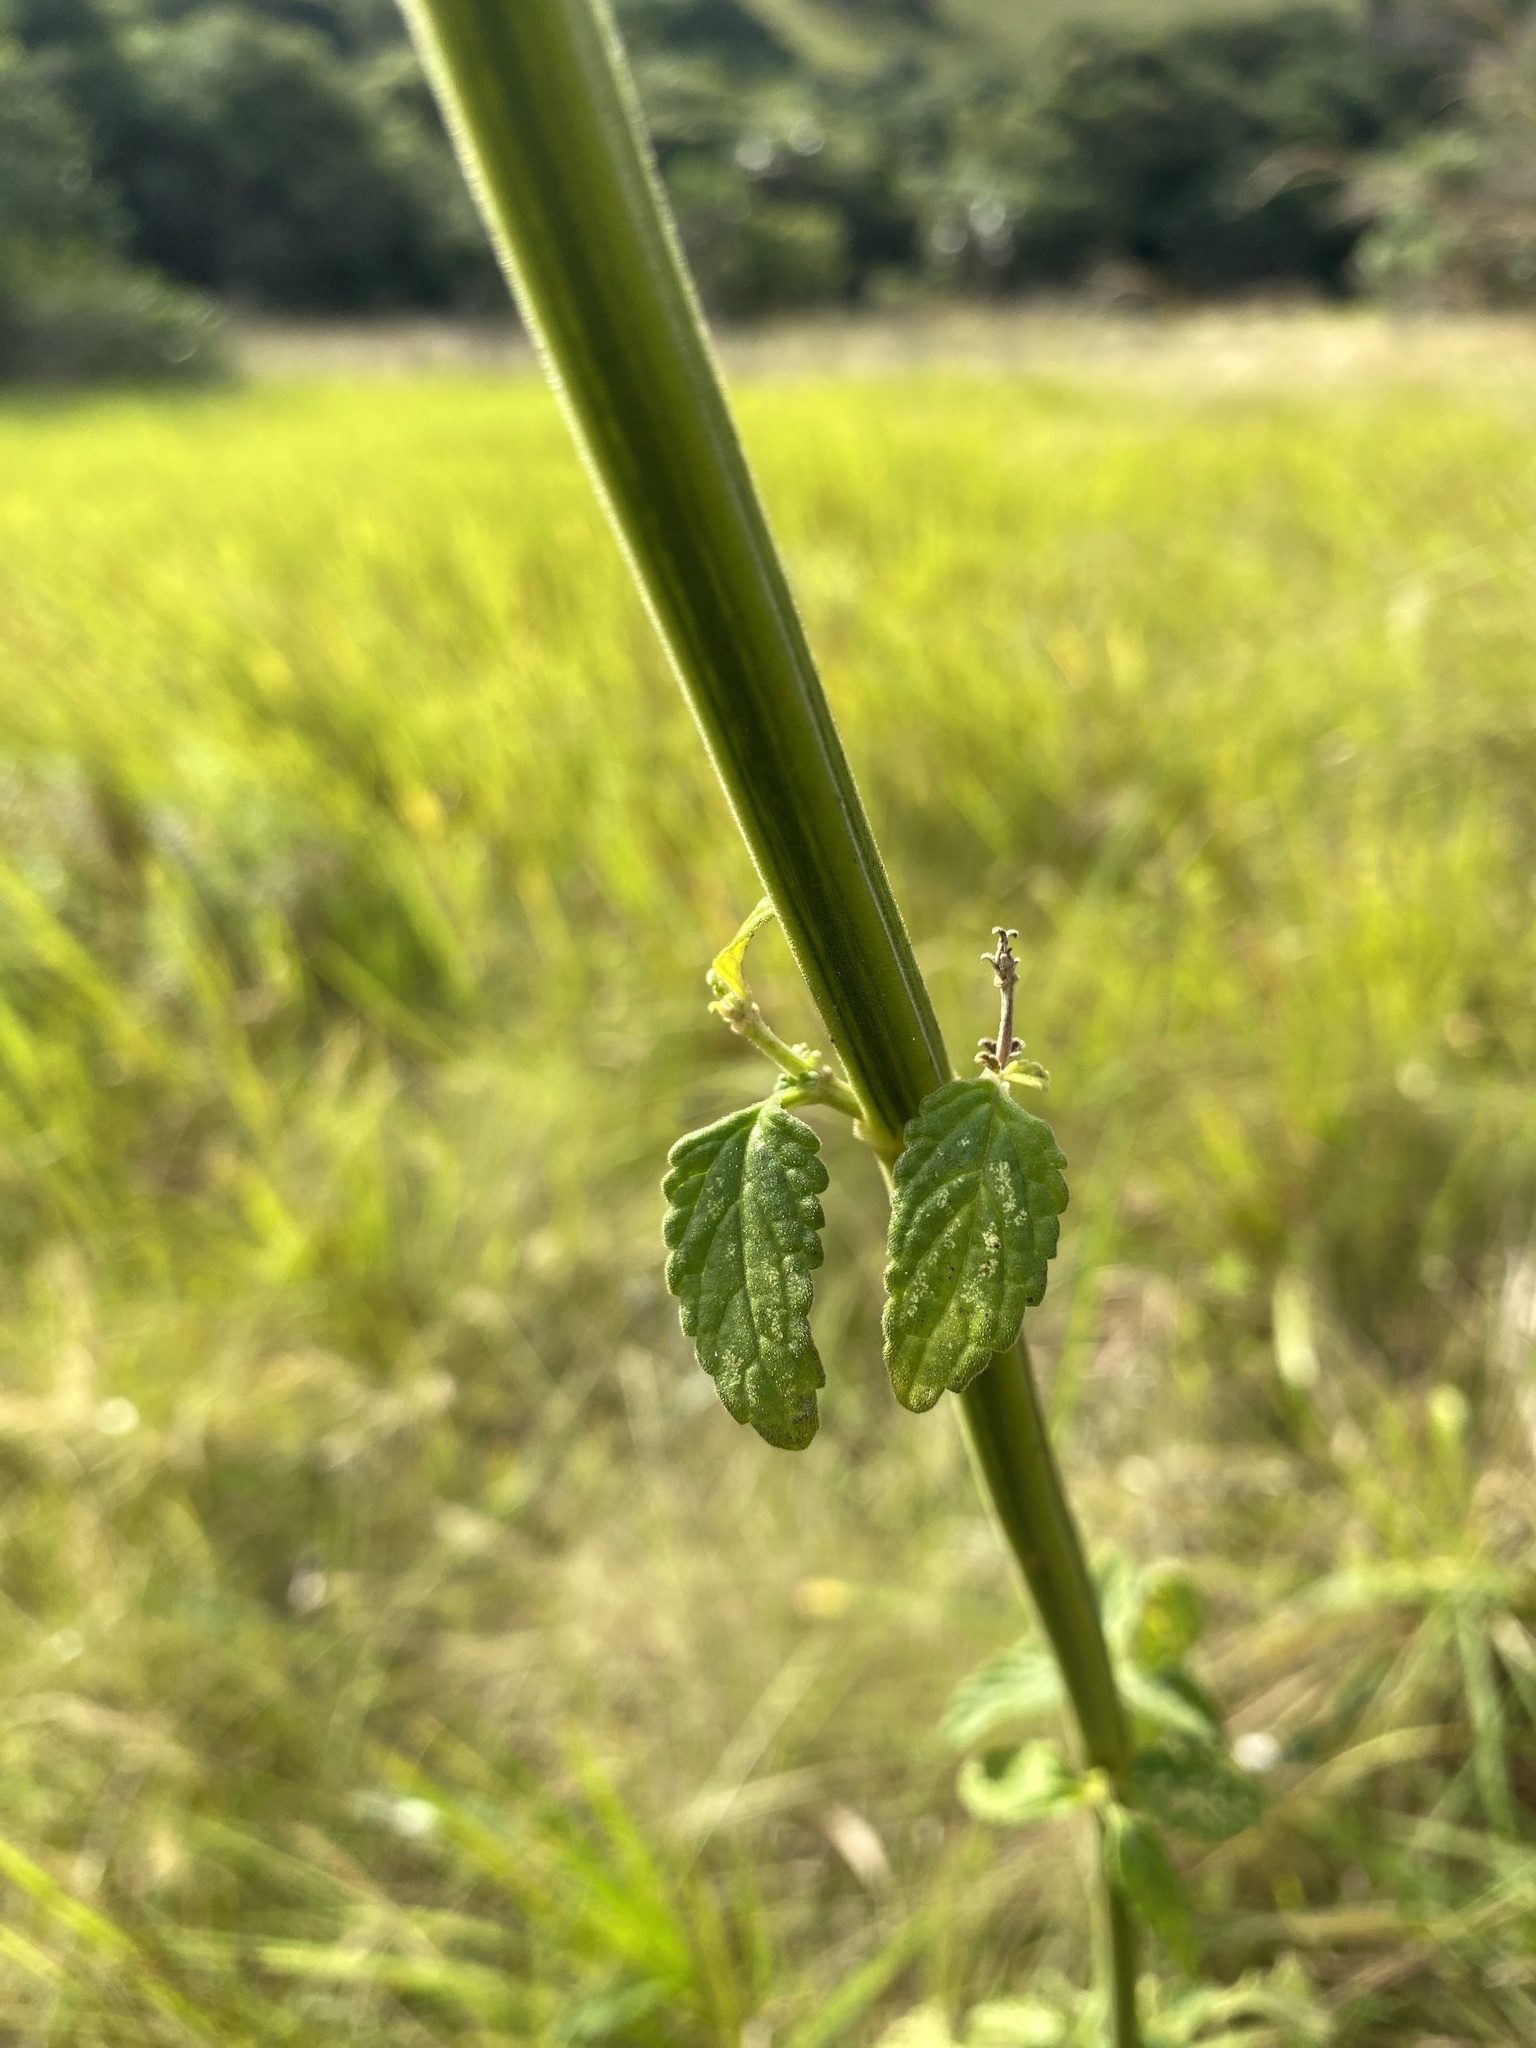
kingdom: Plantae
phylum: Tracheophyta
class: Magnoliopsida
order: Lamiales
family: Lamiaceae
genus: Leonotis
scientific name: Leonotis ocymifolia
